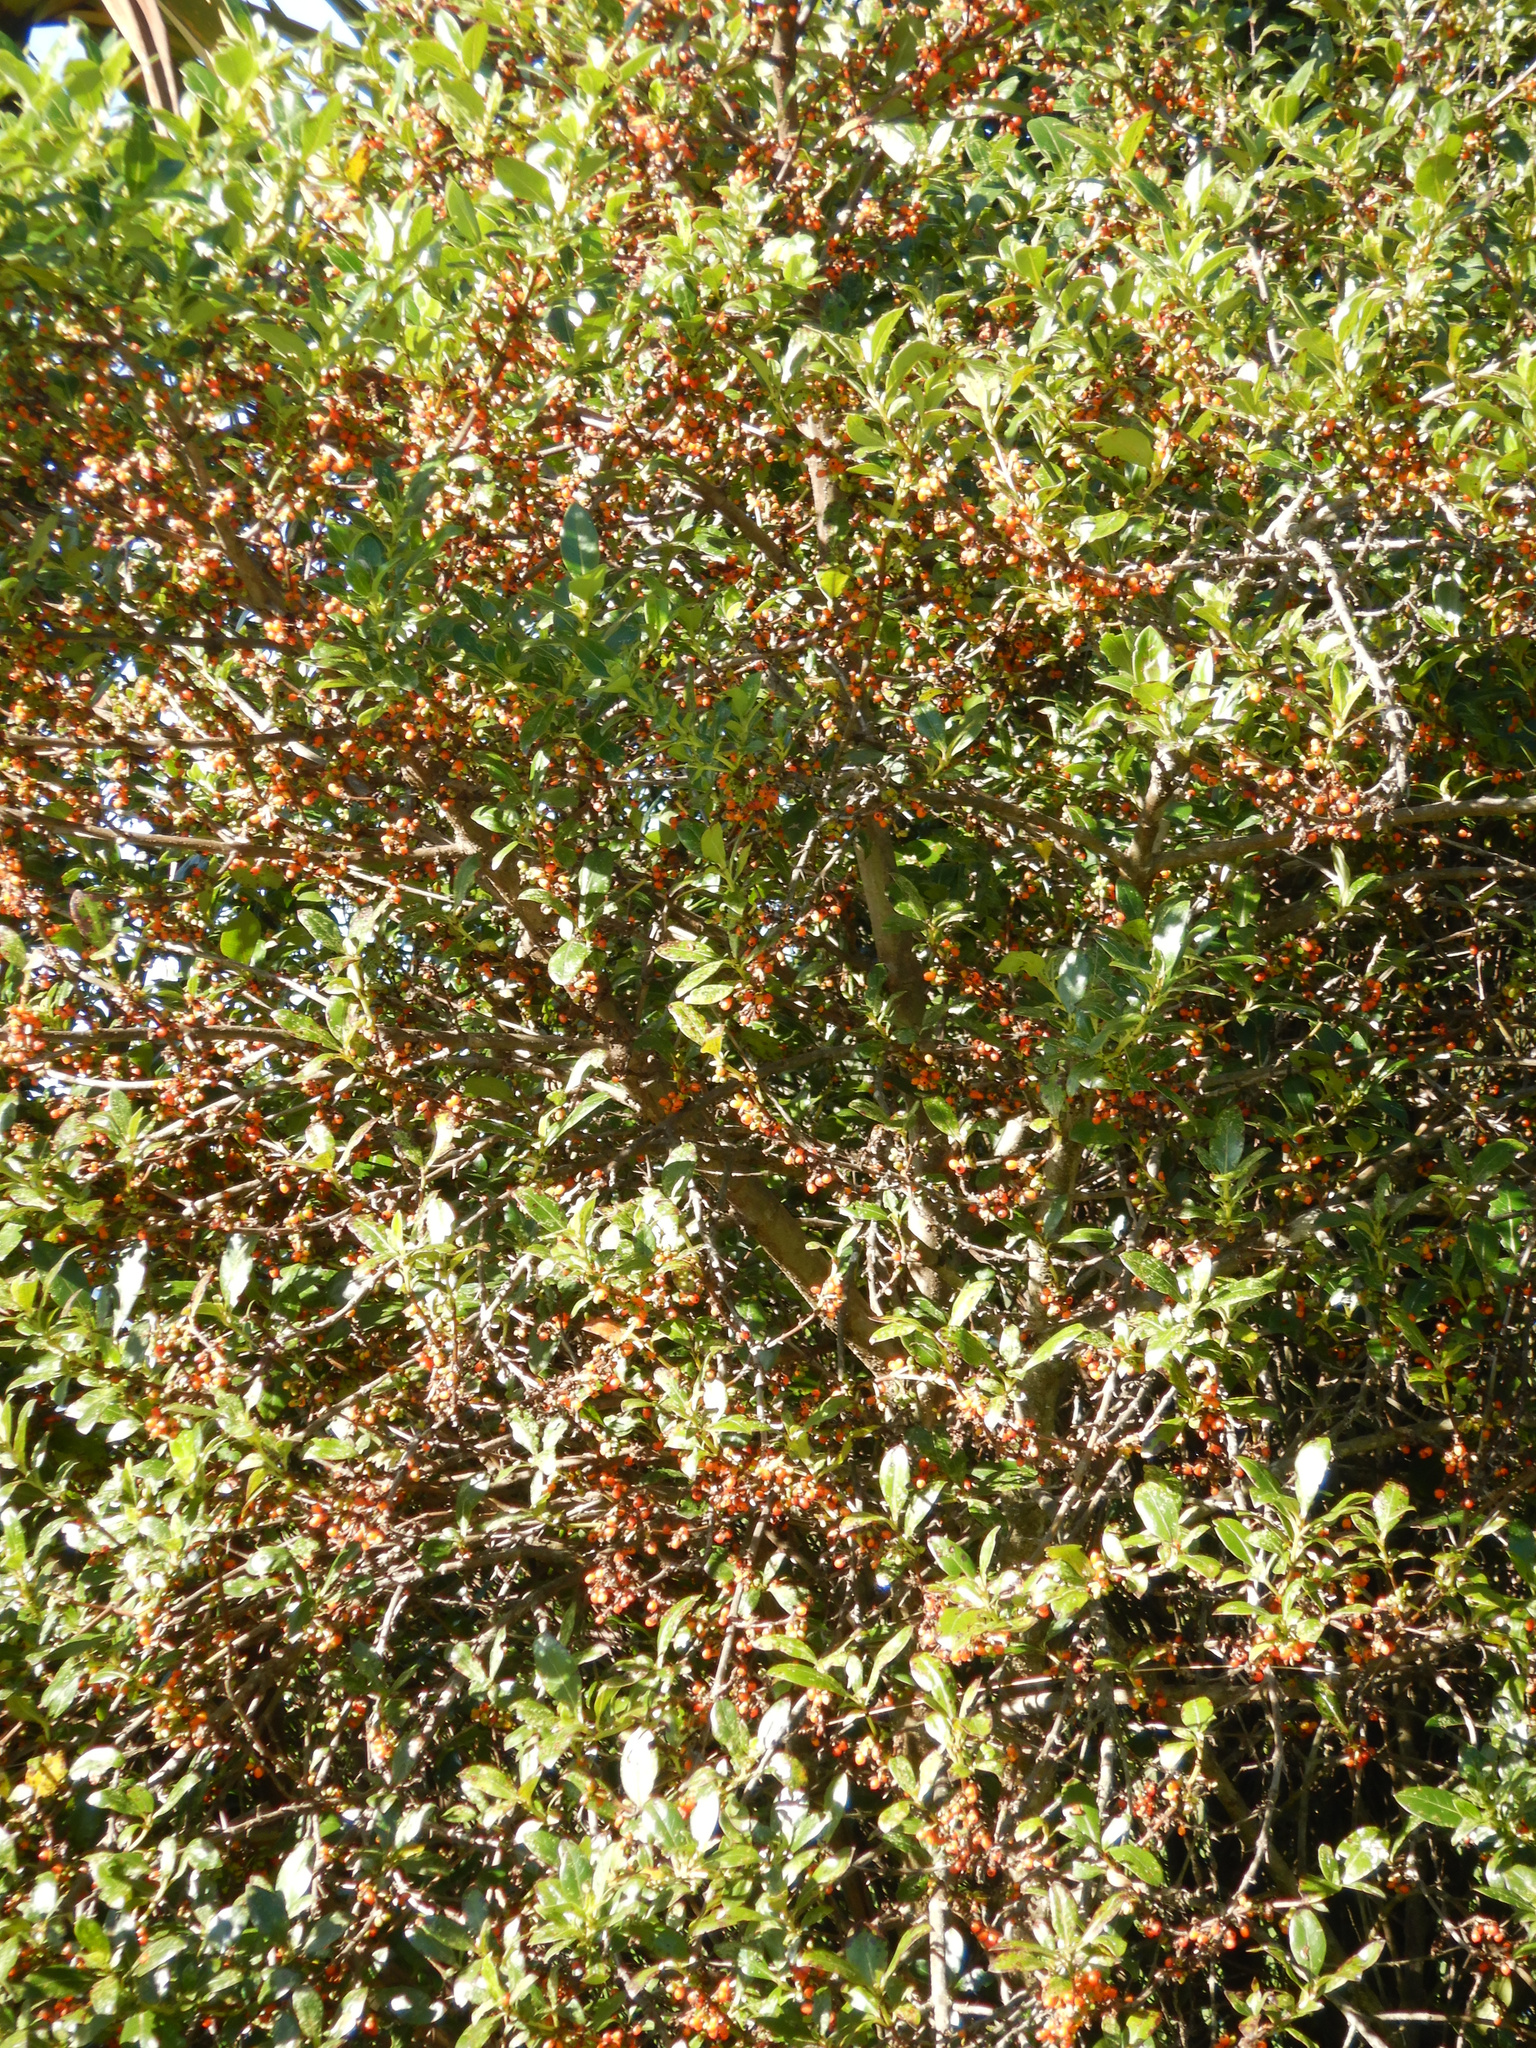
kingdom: Plantae
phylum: Tracheophyta
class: Magnoliopsida
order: Gentianales
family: Rubiaceae
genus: Coprosma
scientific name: Coprosma robusta
